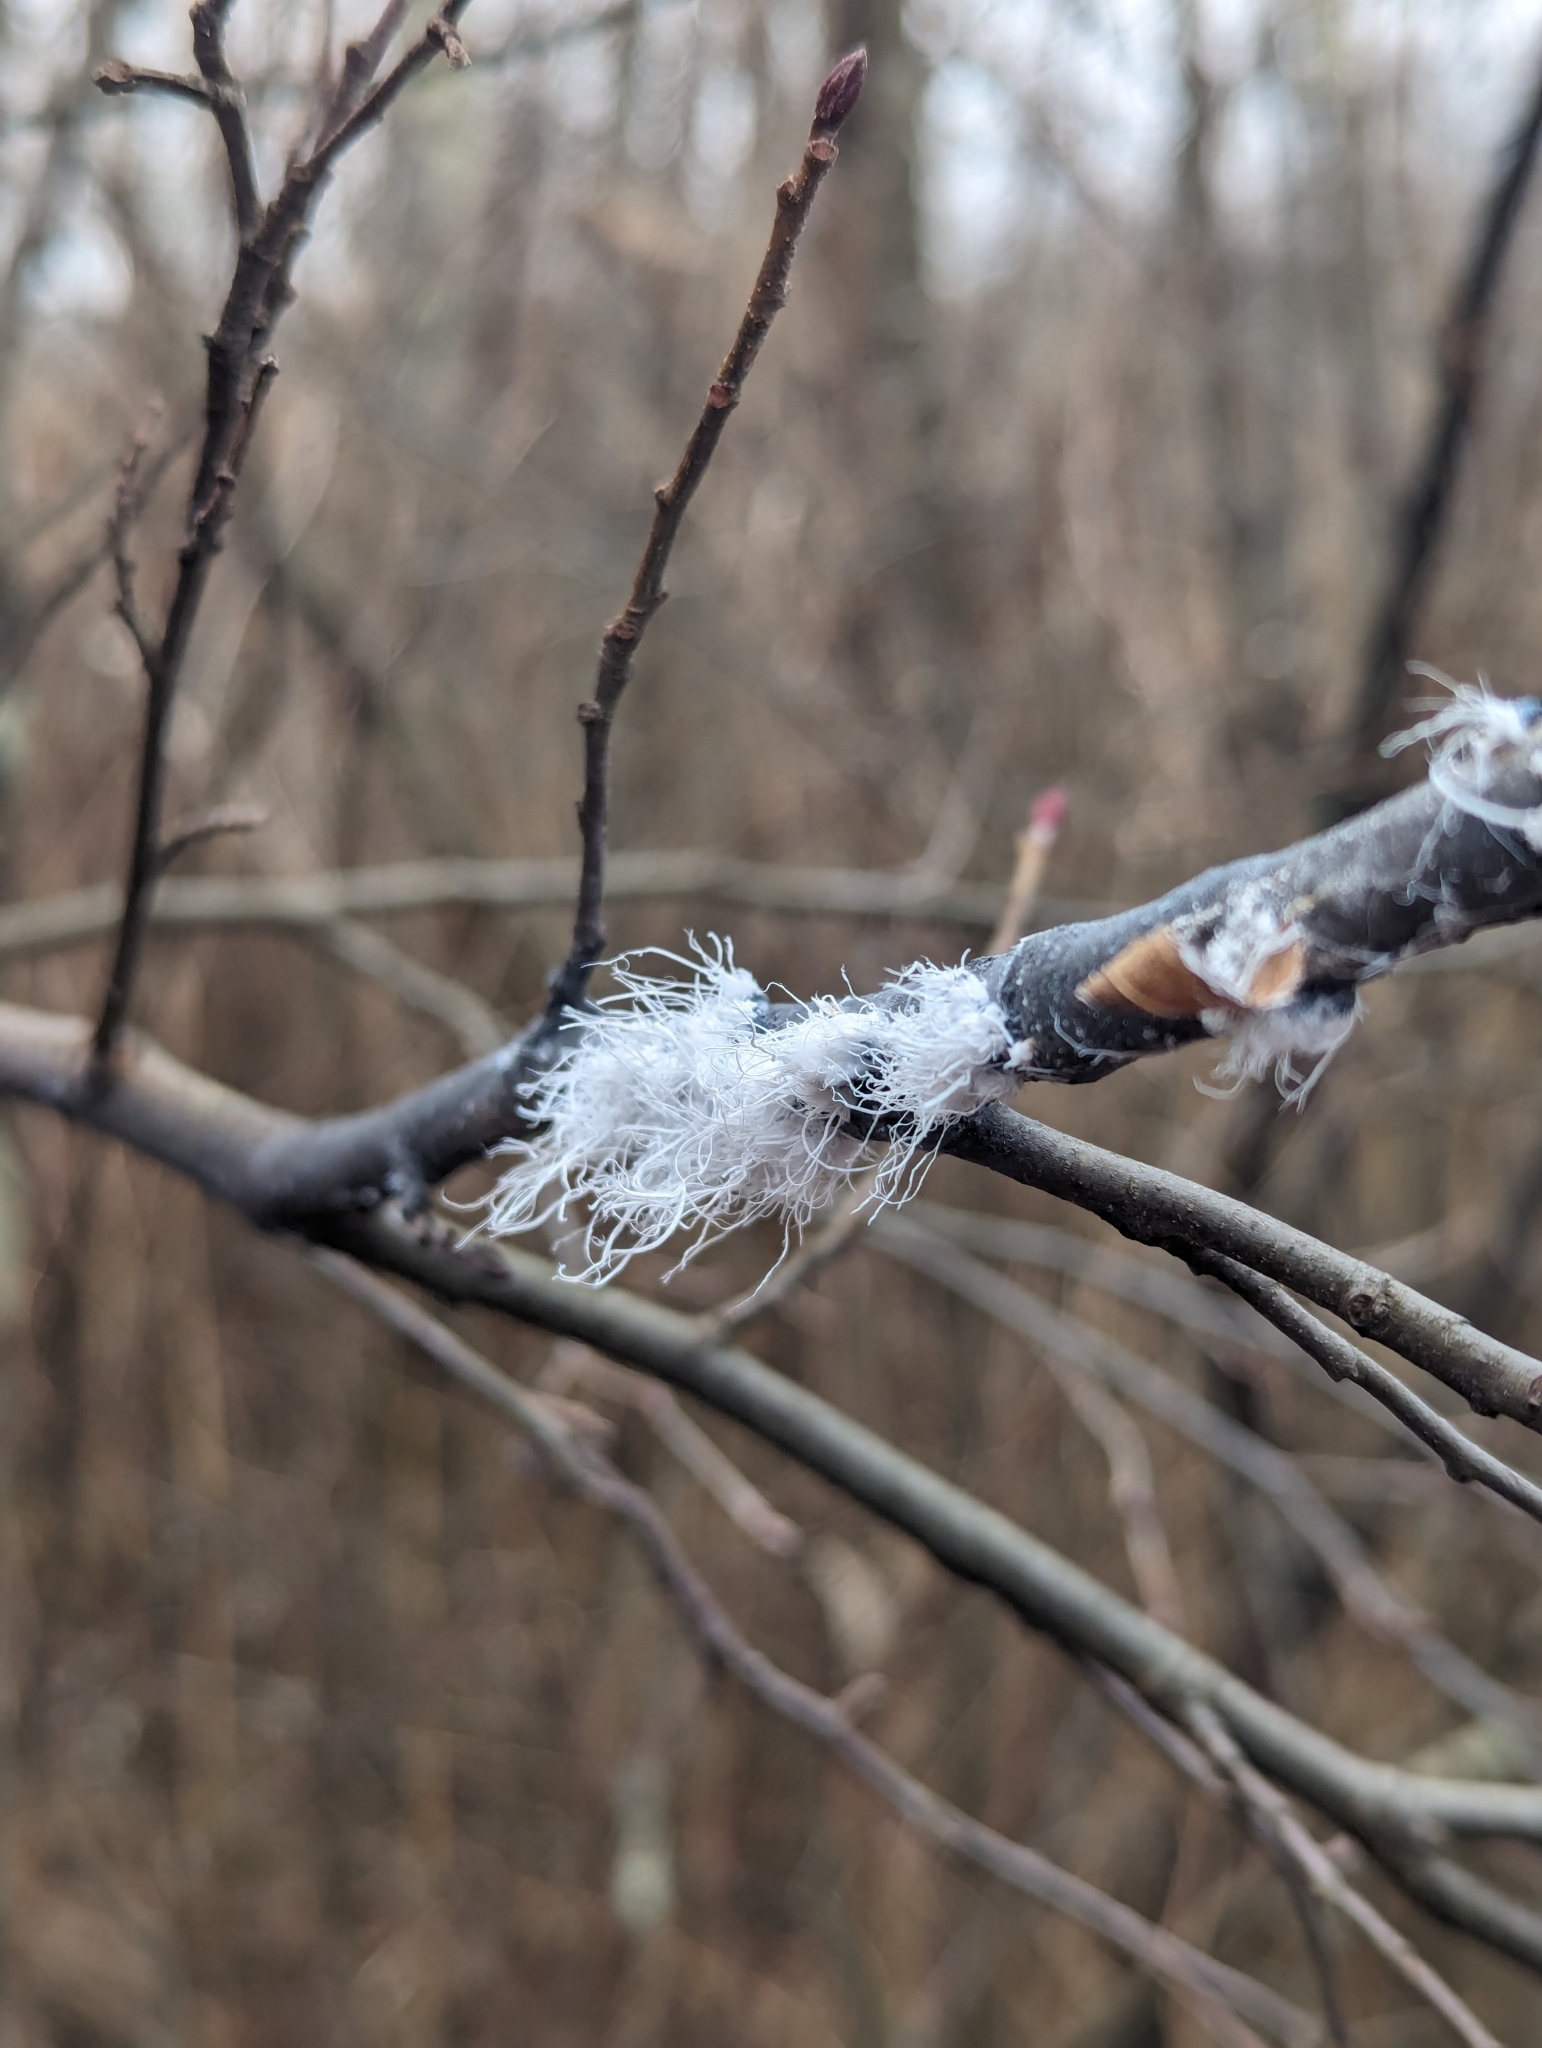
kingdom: Animalia
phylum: Arthropoda
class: Insecta
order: Hemiptera
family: Aphididae
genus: Prociphilus
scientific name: Prociphilus tessellatus
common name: Woolly alder aphid
